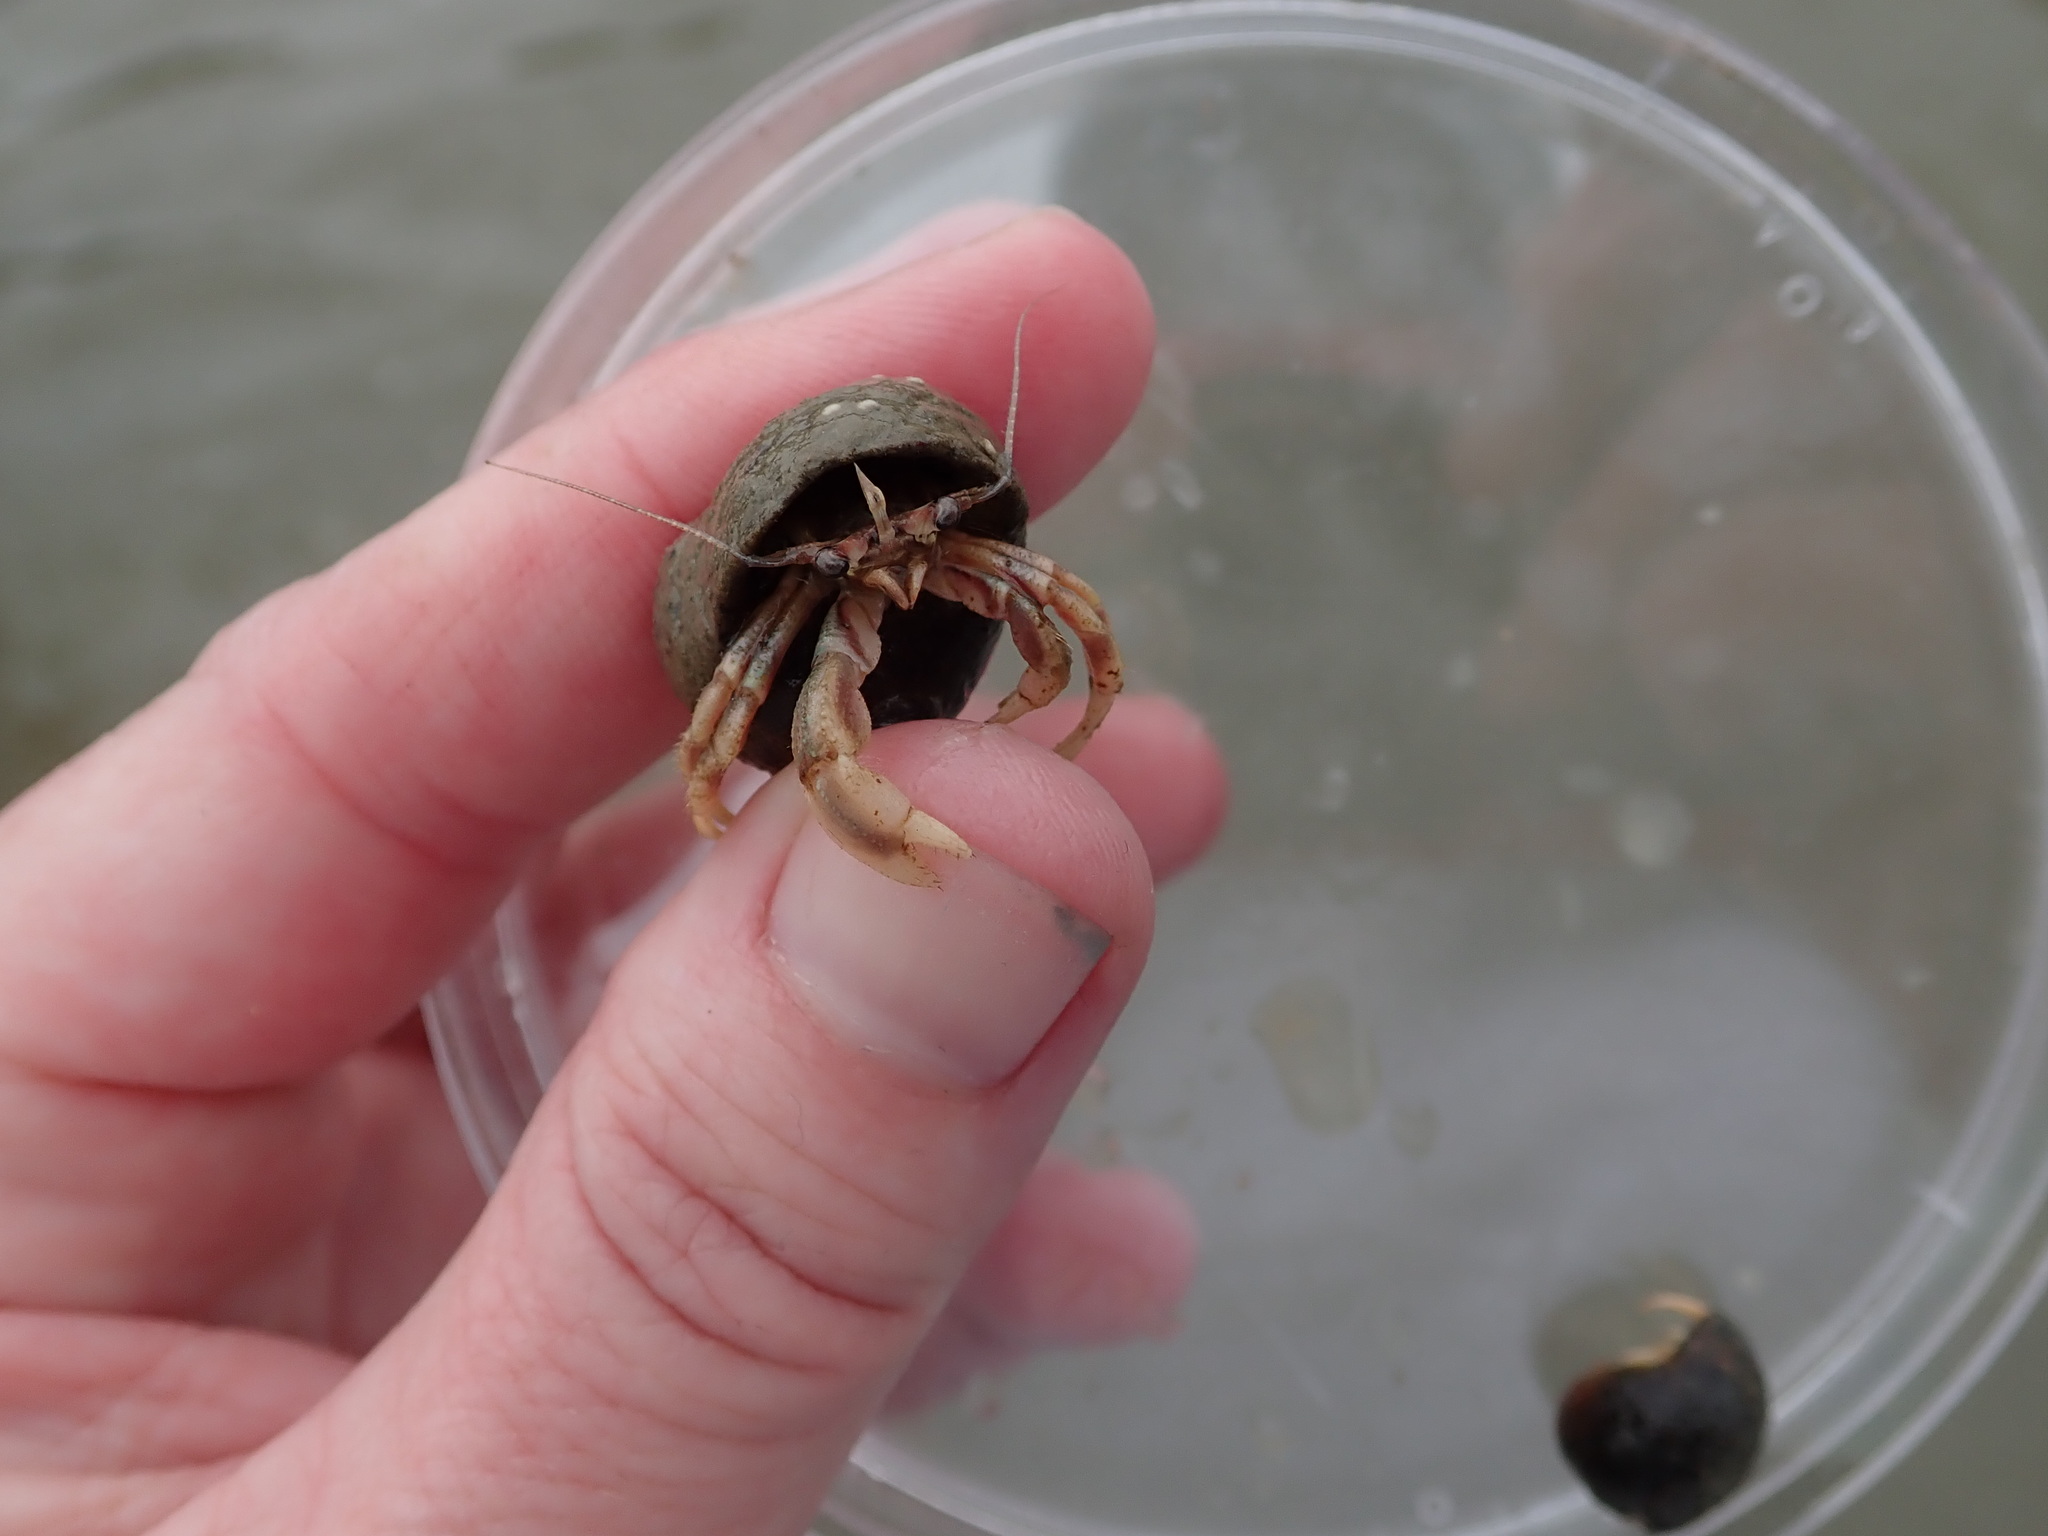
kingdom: Animalia
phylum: Arthropoda
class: Malacostraca
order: Decapoda
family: Paguridae
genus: Pagurus
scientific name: Pagurus longicarpus
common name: Long-armed hermit crab
